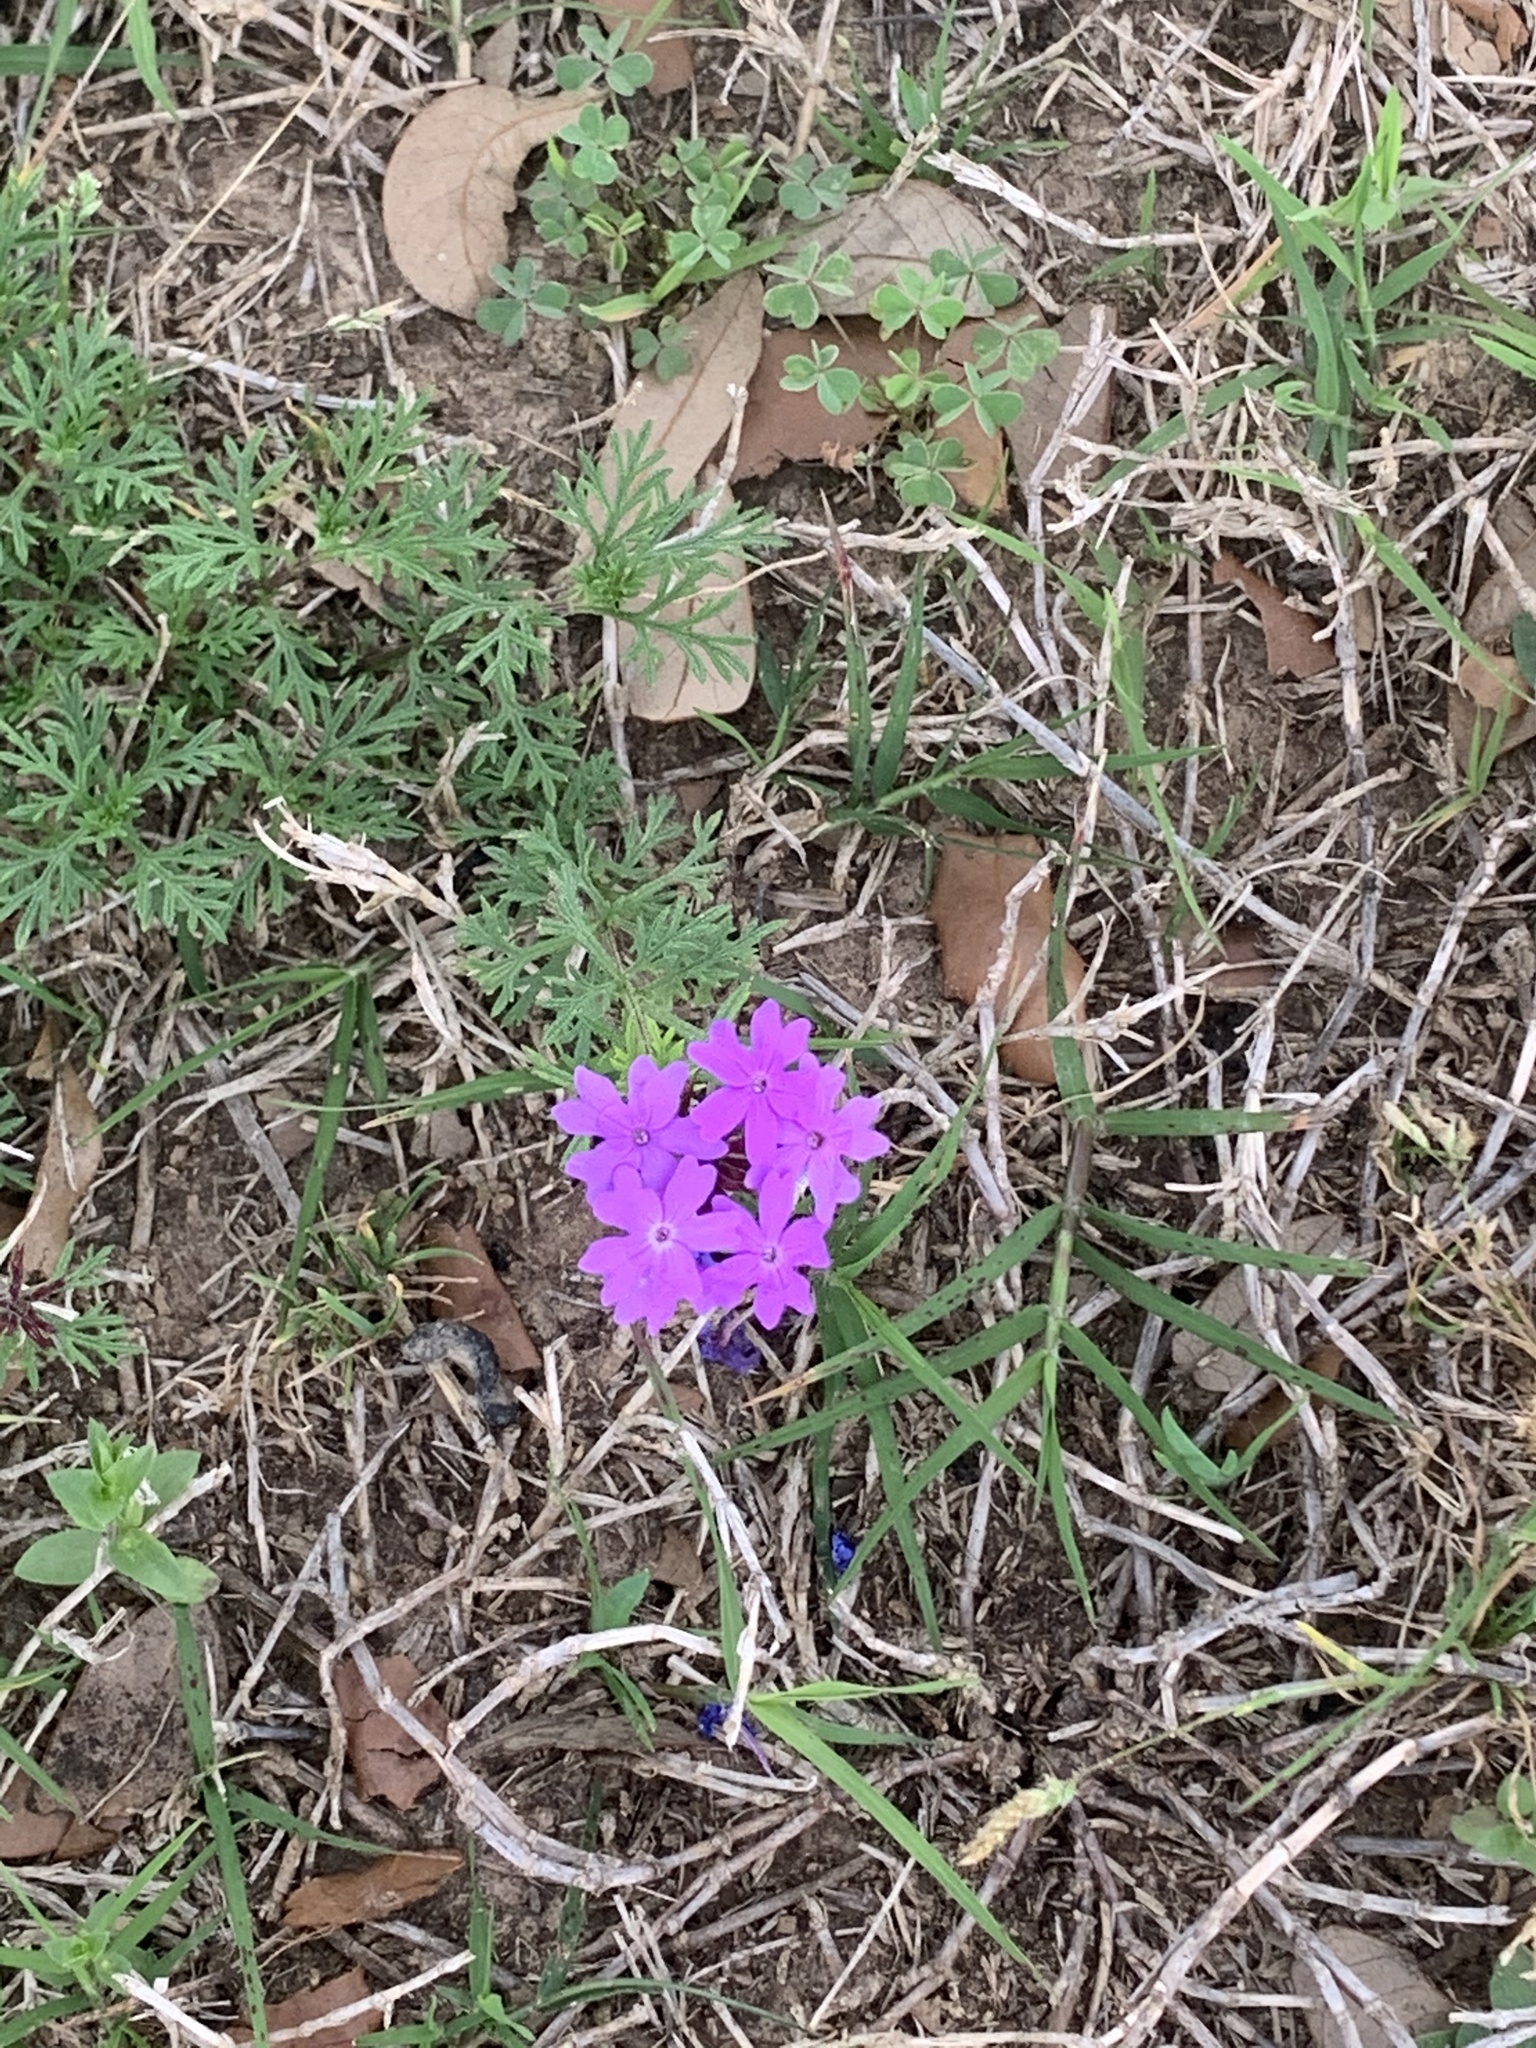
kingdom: Plantae
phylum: Tracheophyta
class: Magnoliopsida
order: Lamiales
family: Verbenaceae
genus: Verbena
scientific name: Verbena bipinnatifida
